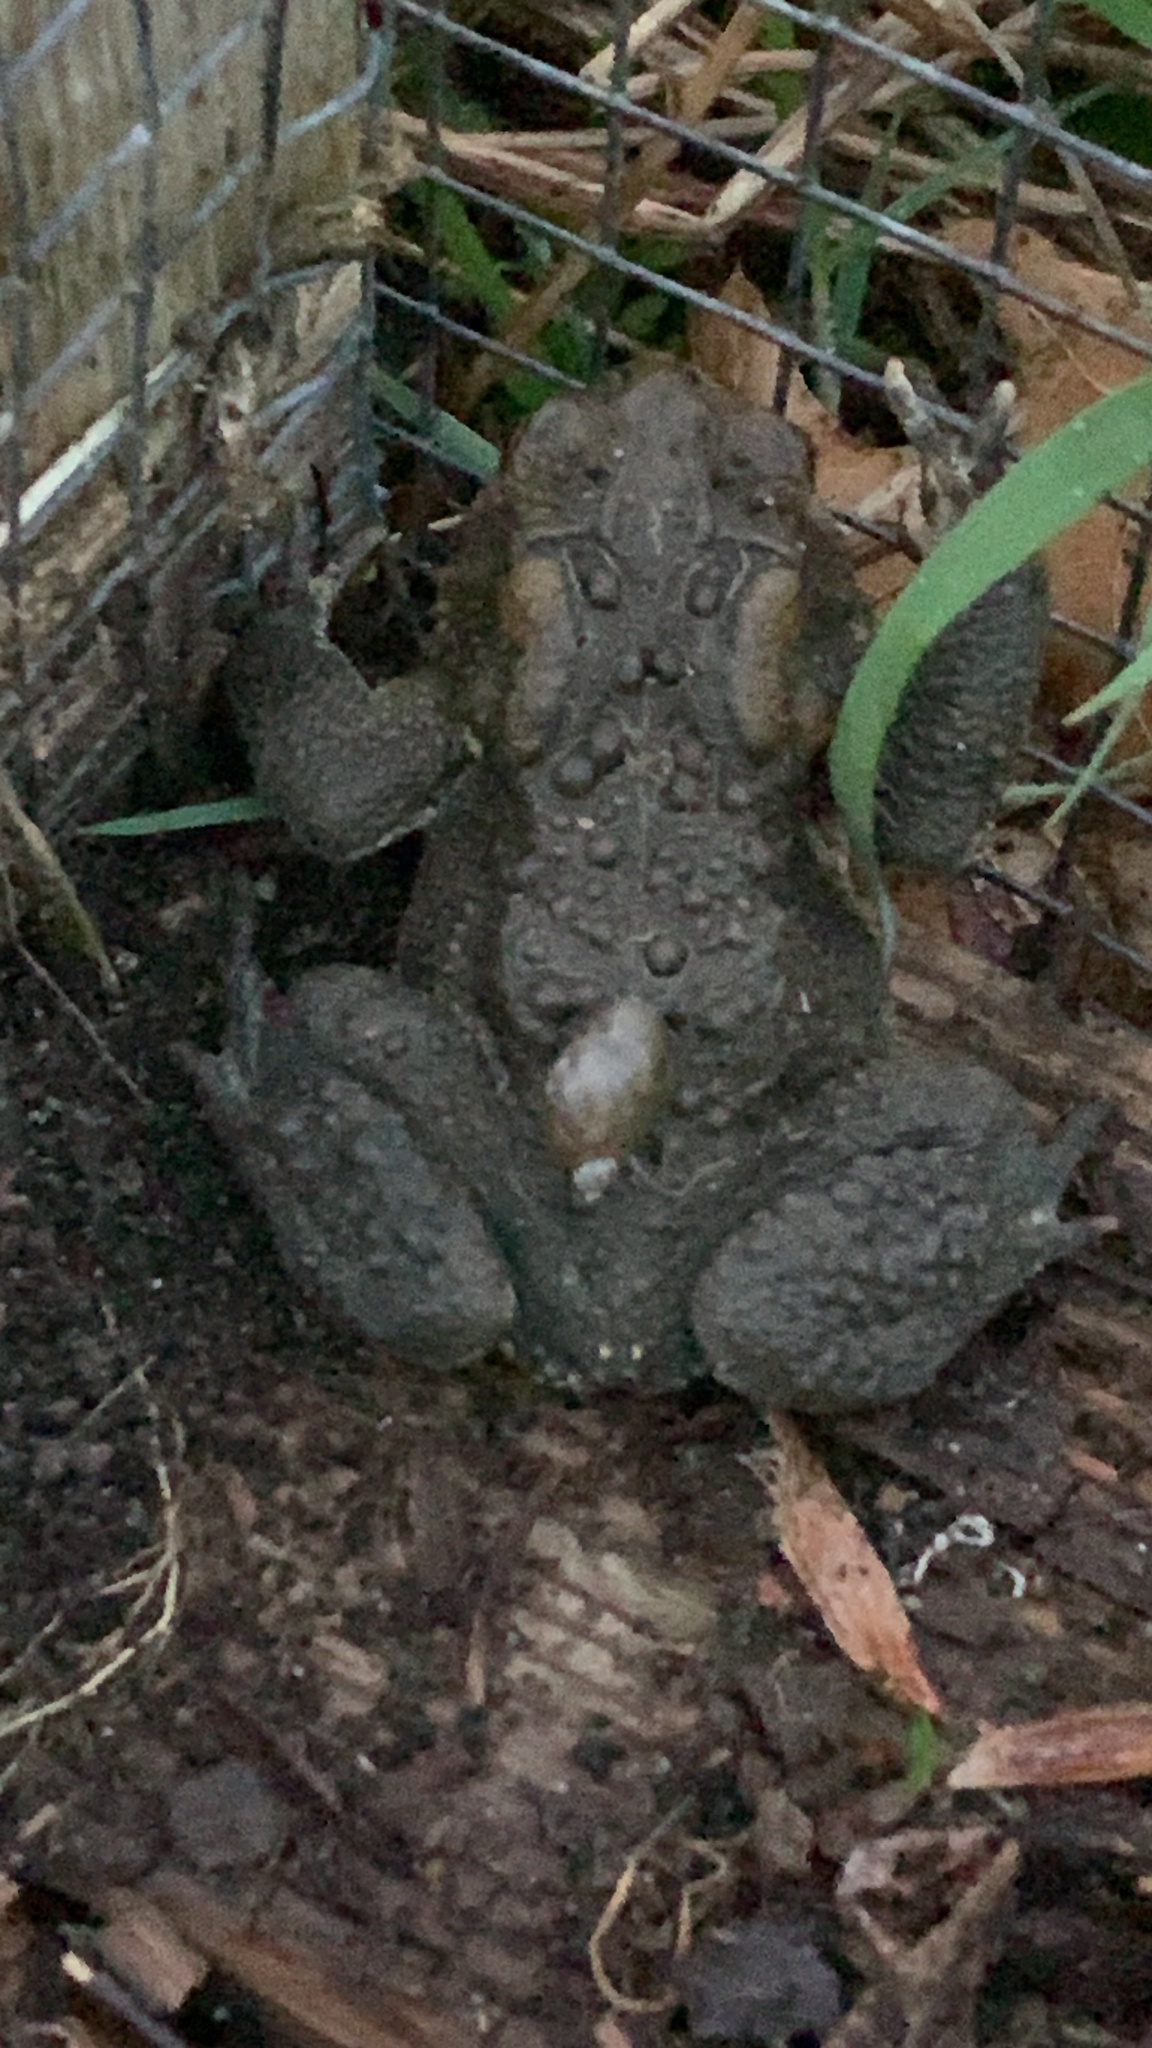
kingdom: Animalia
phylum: Chordata
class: Amphibia
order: Anura
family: Bufonidae
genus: Anaxyrus
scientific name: Anaxyrus americanus
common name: American toad
